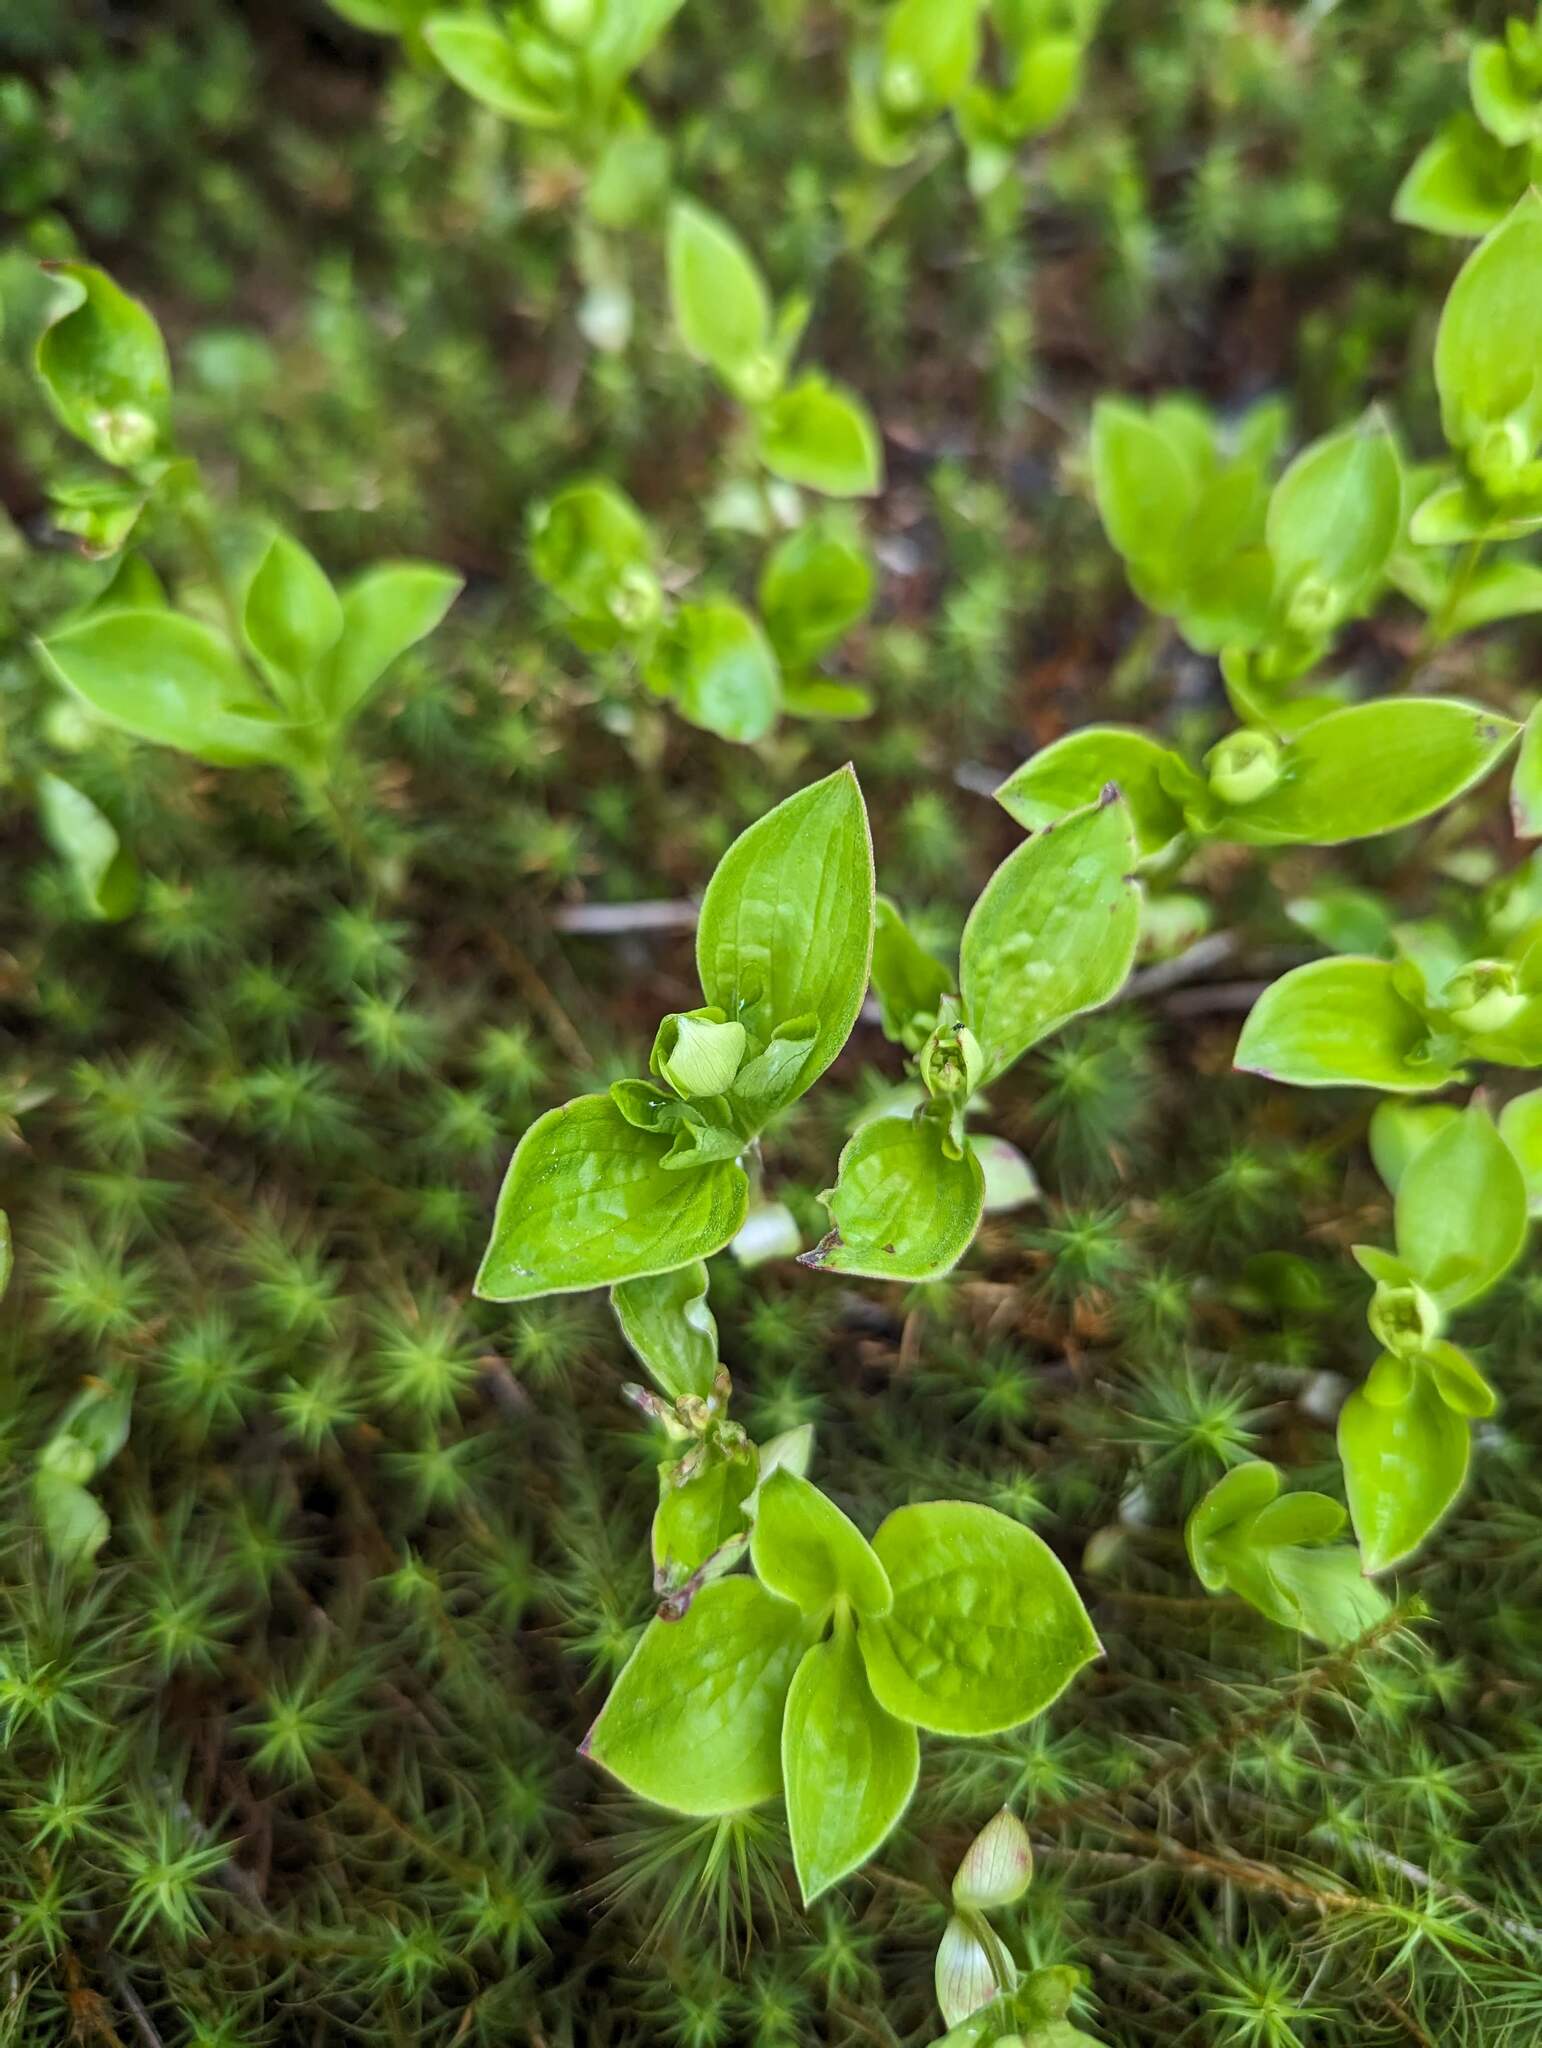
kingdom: Plantae
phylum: Tracheophyta
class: Magnoliopsida
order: Cornales
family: Cornaceae
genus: Cornus
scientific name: Cornus canadensis
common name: Creeping dogwood
